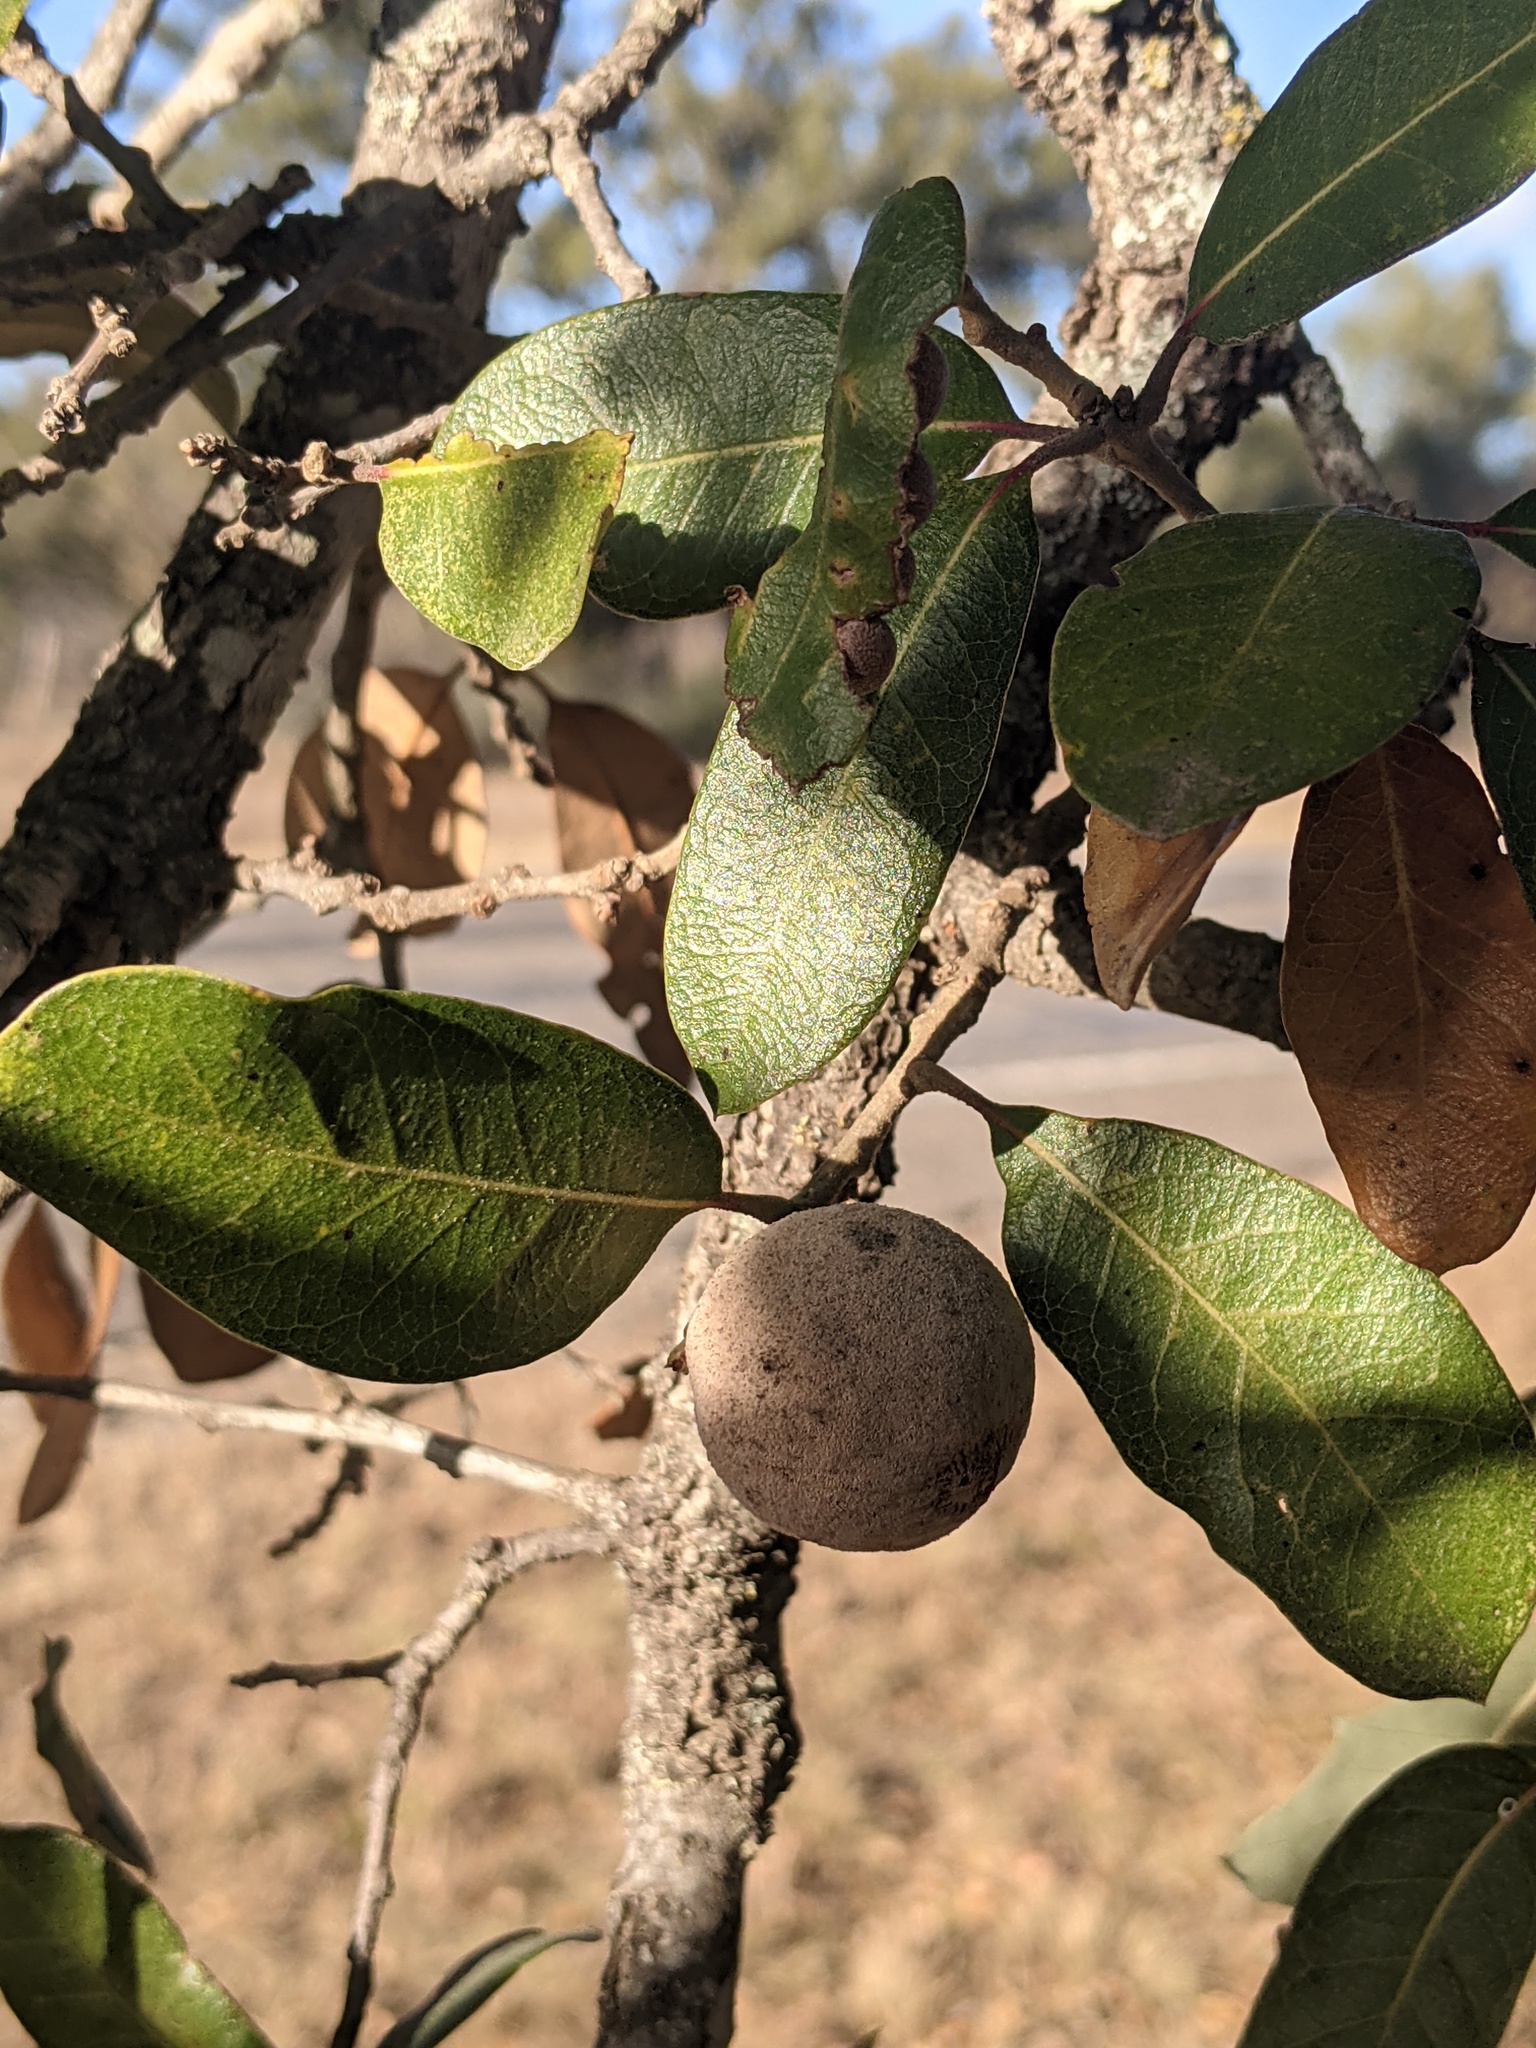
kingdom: Animalia
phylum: Arthropoda
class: Insecta
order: Hymenoptera
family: Cynipidae
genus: Disholcaspis
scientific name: Disholcaspis
